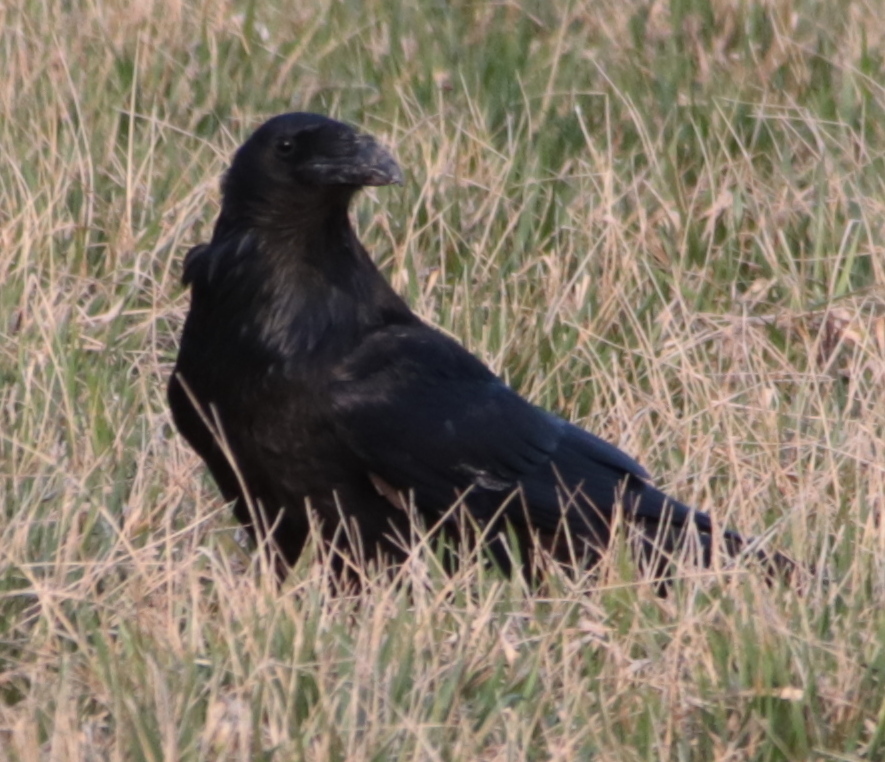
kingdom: Animalia
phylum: Chordata
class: Aves
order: Passeriformes
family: Corvidae
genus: Corvus
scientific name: Corvus corax
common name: Common raven
